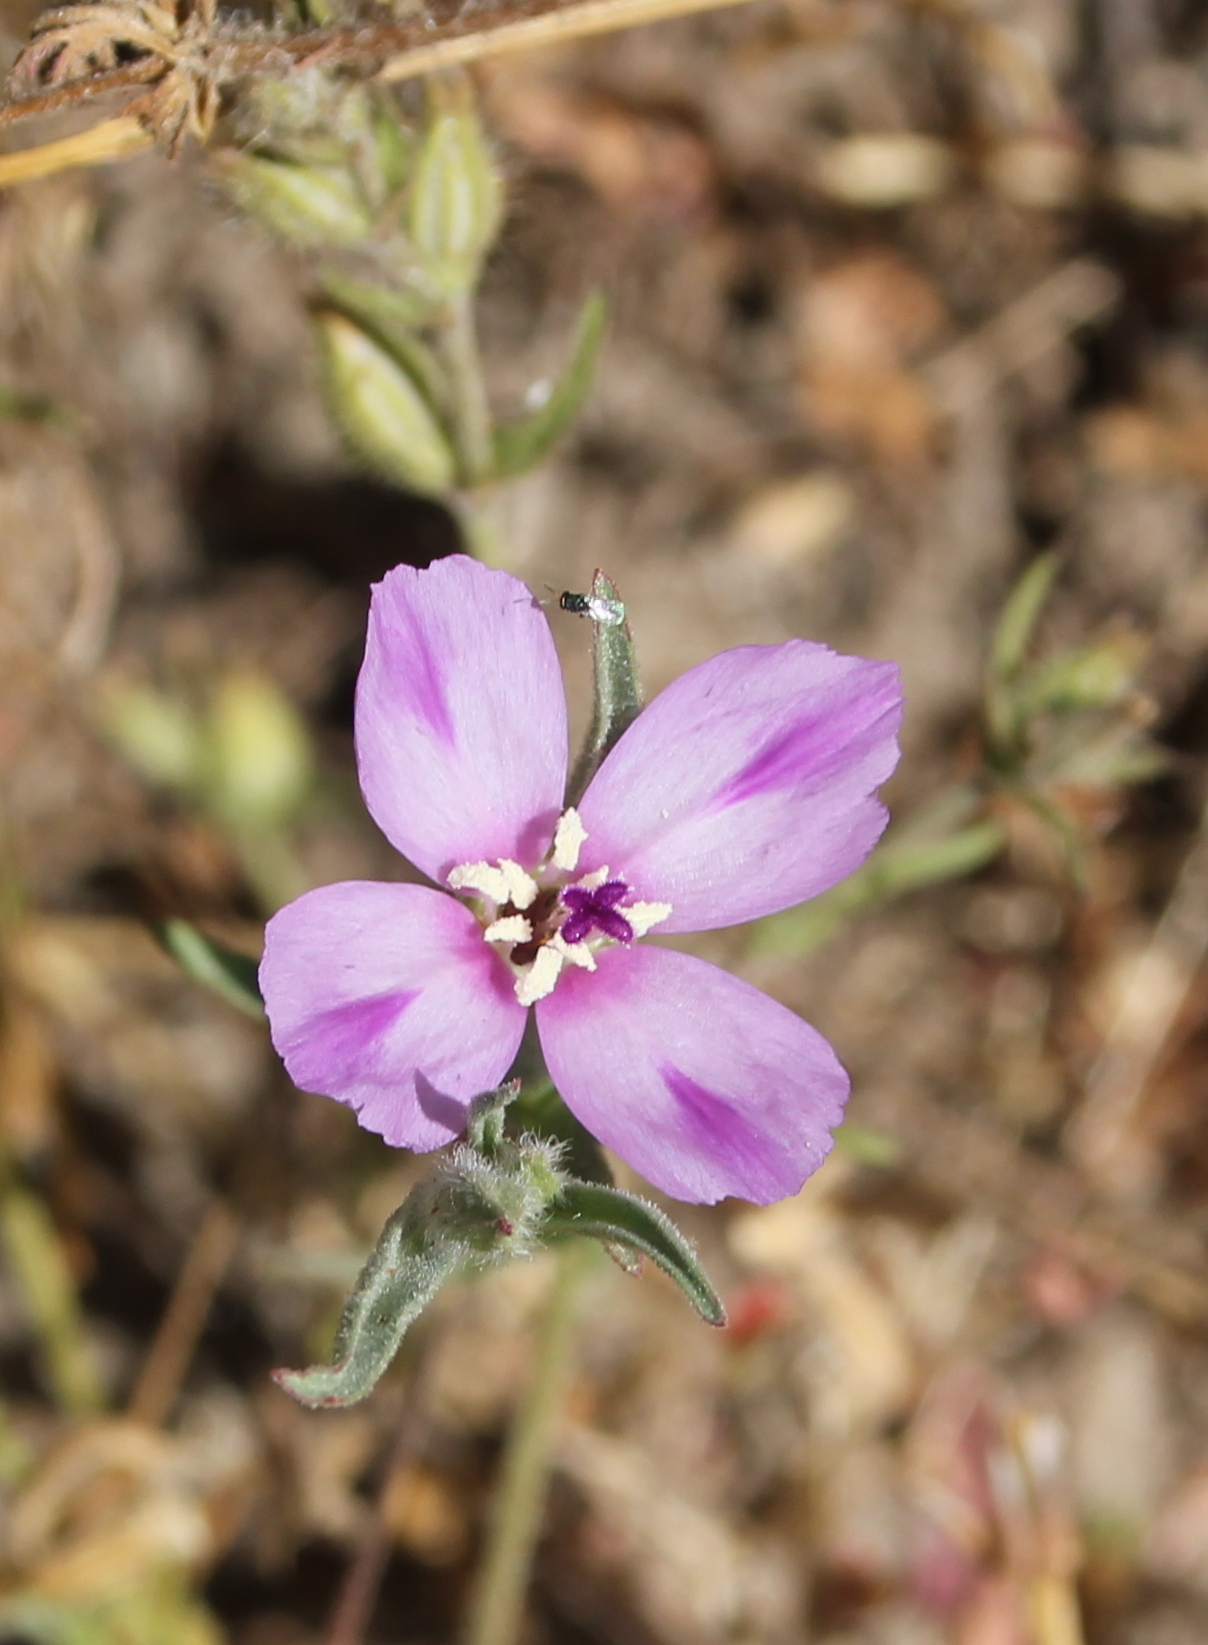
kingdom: Plantae
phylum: Tracheophyta
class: Magnoliopsida
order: Myrtales
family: Onagraceae
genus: Clarkia
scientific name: Clarkia purpurea
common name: Purple clarkia
